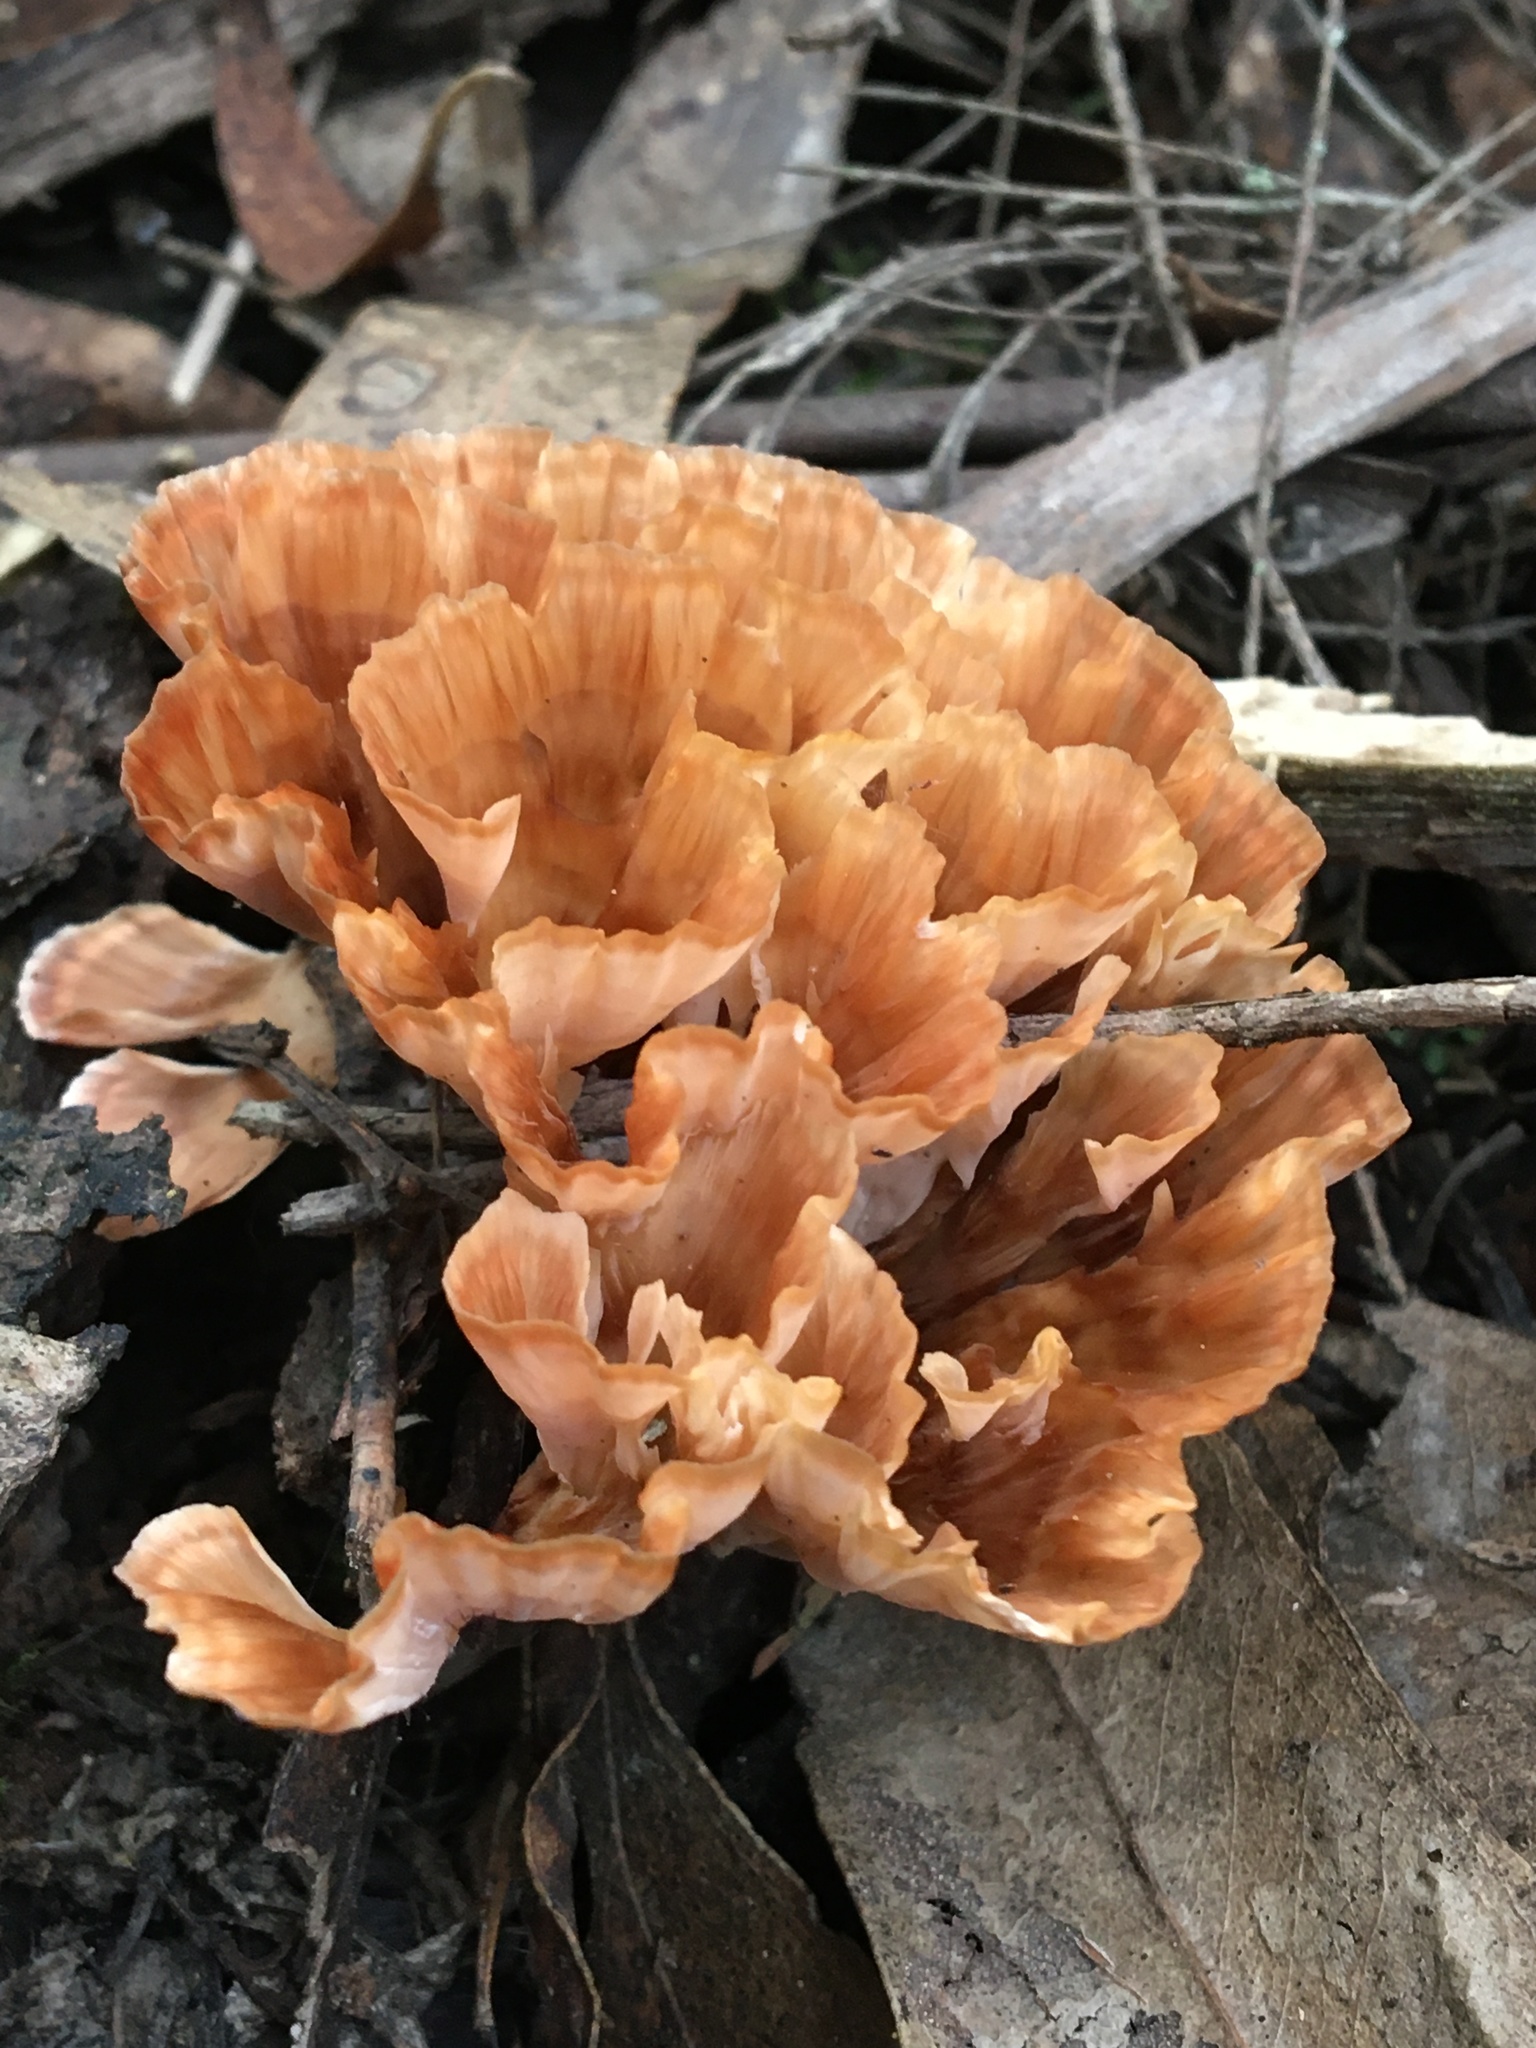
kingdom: Fungi
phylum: Basidiomycota
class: Agaricomycetes
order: Polyporales
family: Podoscyphaceae
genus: Podoscypha
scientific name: Podoscypha petalodes
